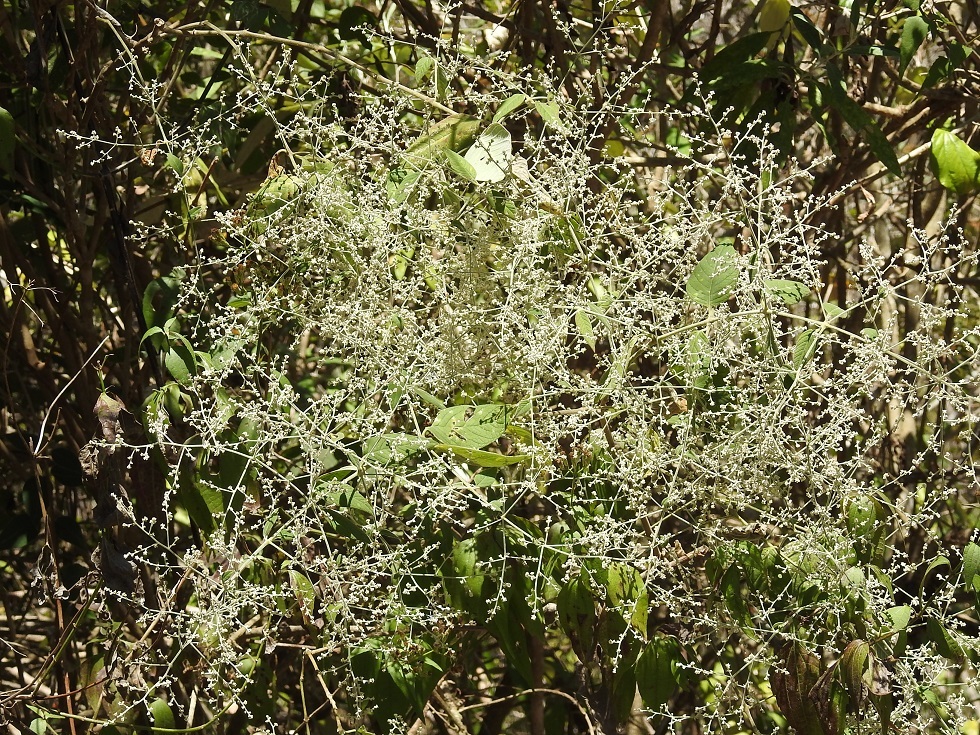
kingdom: Plantae
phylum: Tracheophyta
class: Magnoliopsida
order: Caryophyllales
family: Amaranthaceae
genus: Iresine
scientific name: Iresine latifolia
